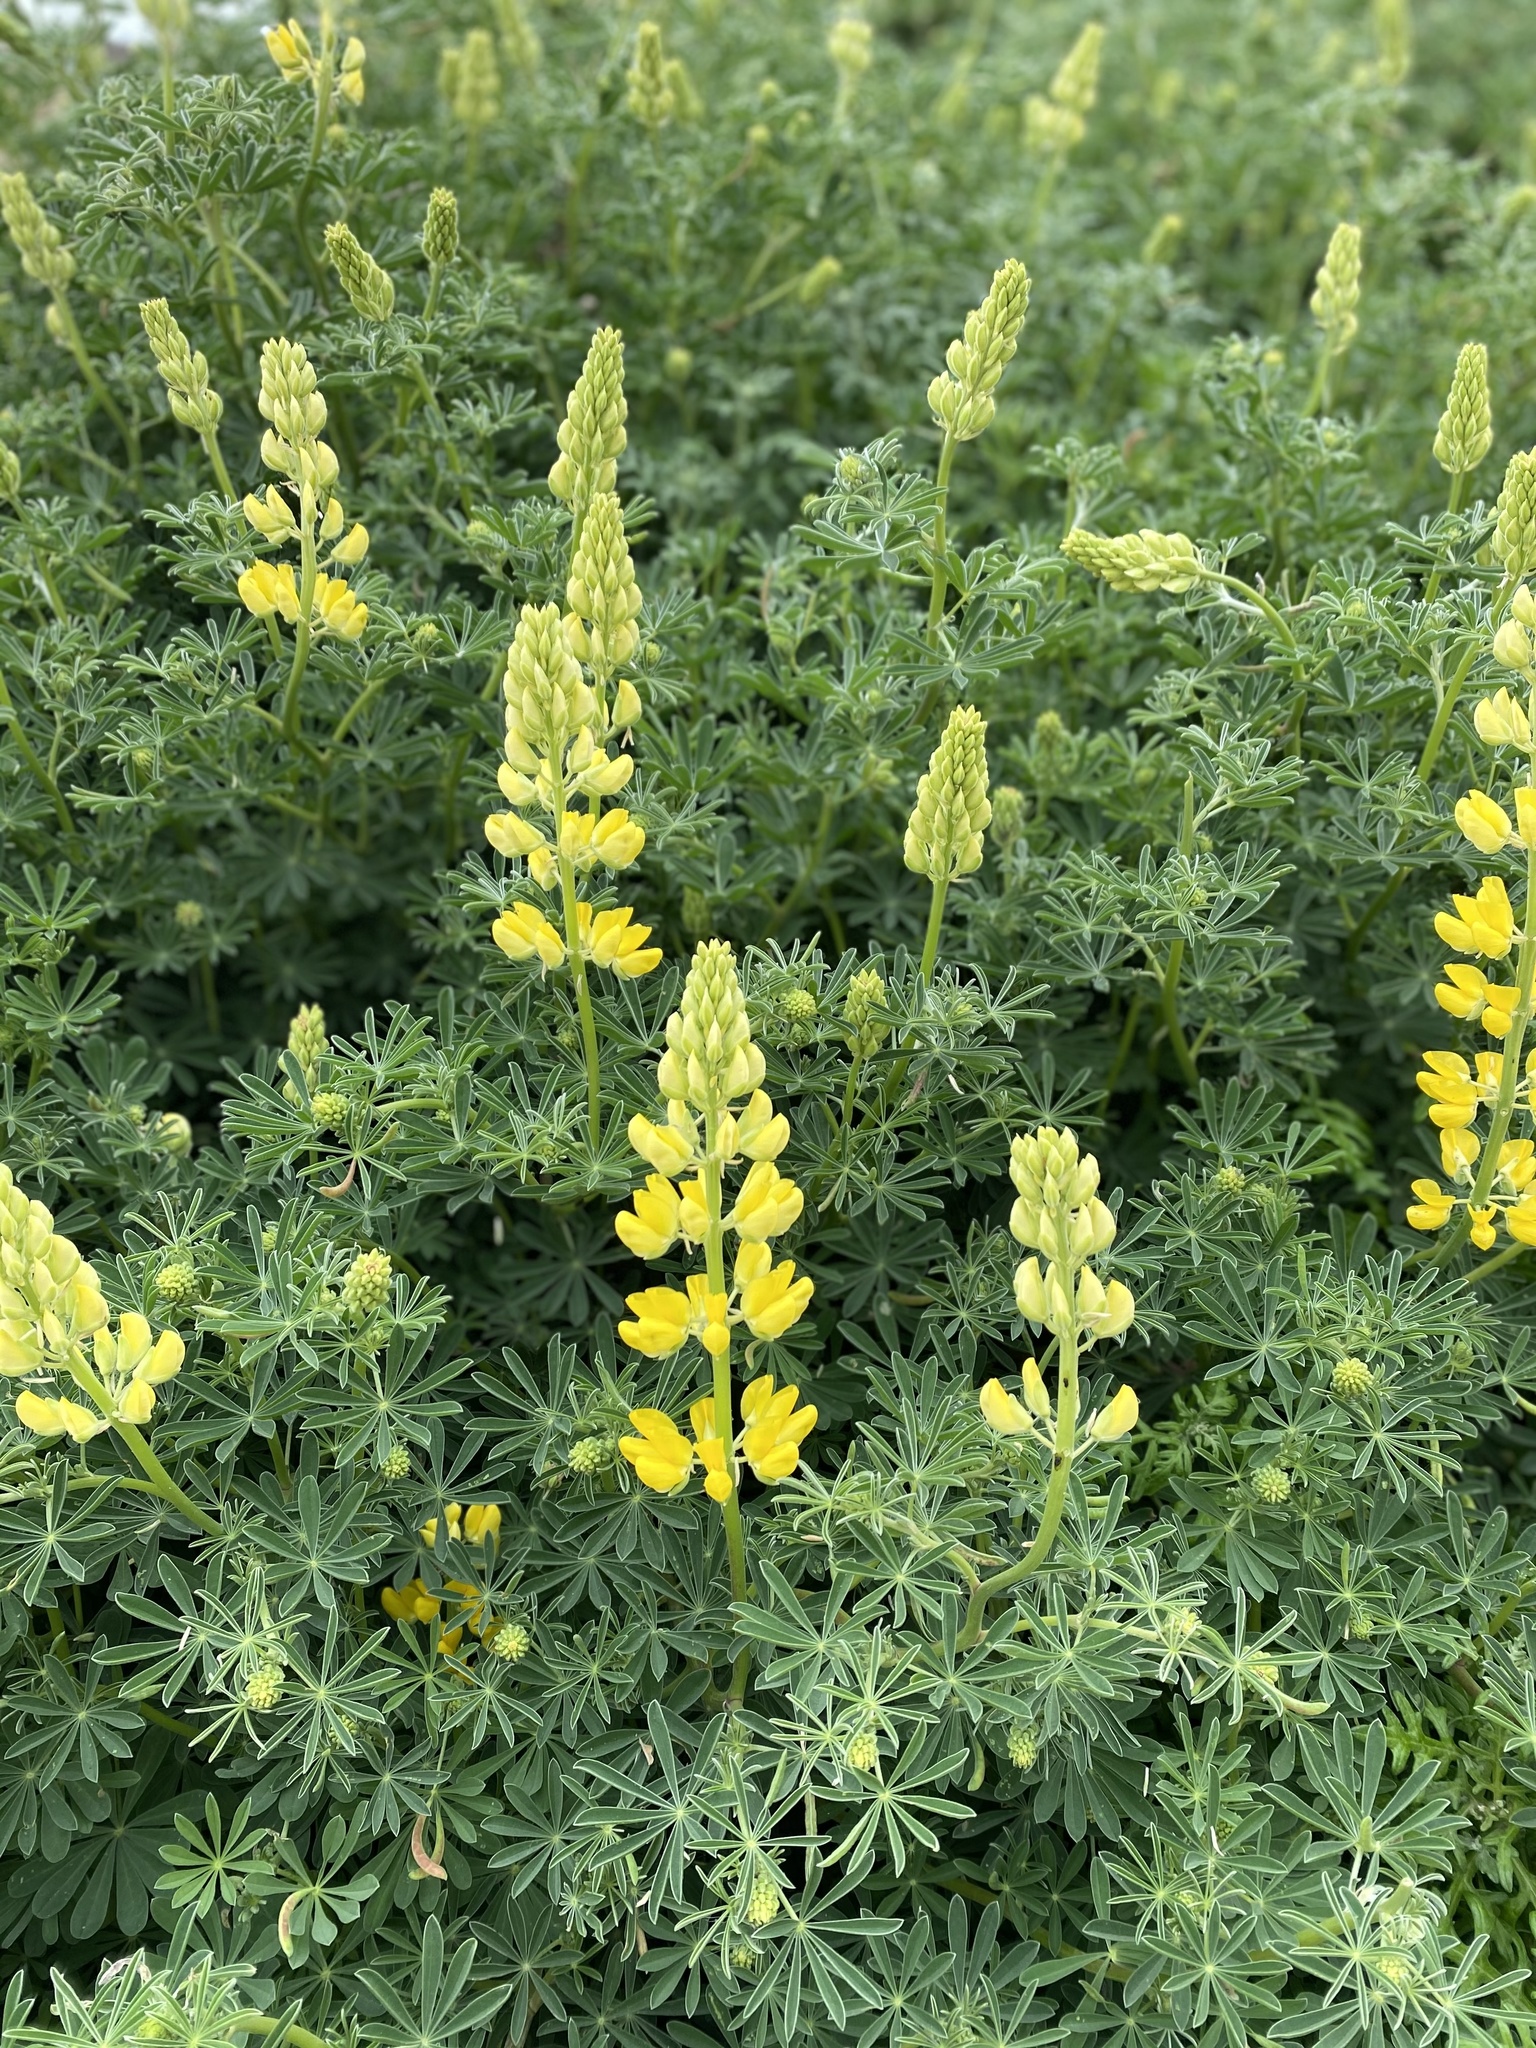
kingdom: Plantae
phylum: Tracheophyta
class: Magnoliopsida
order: Fabales
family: Fabaceae
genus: Lupinus
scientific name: Lupinus arboreus
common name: Yellow bush lupine
